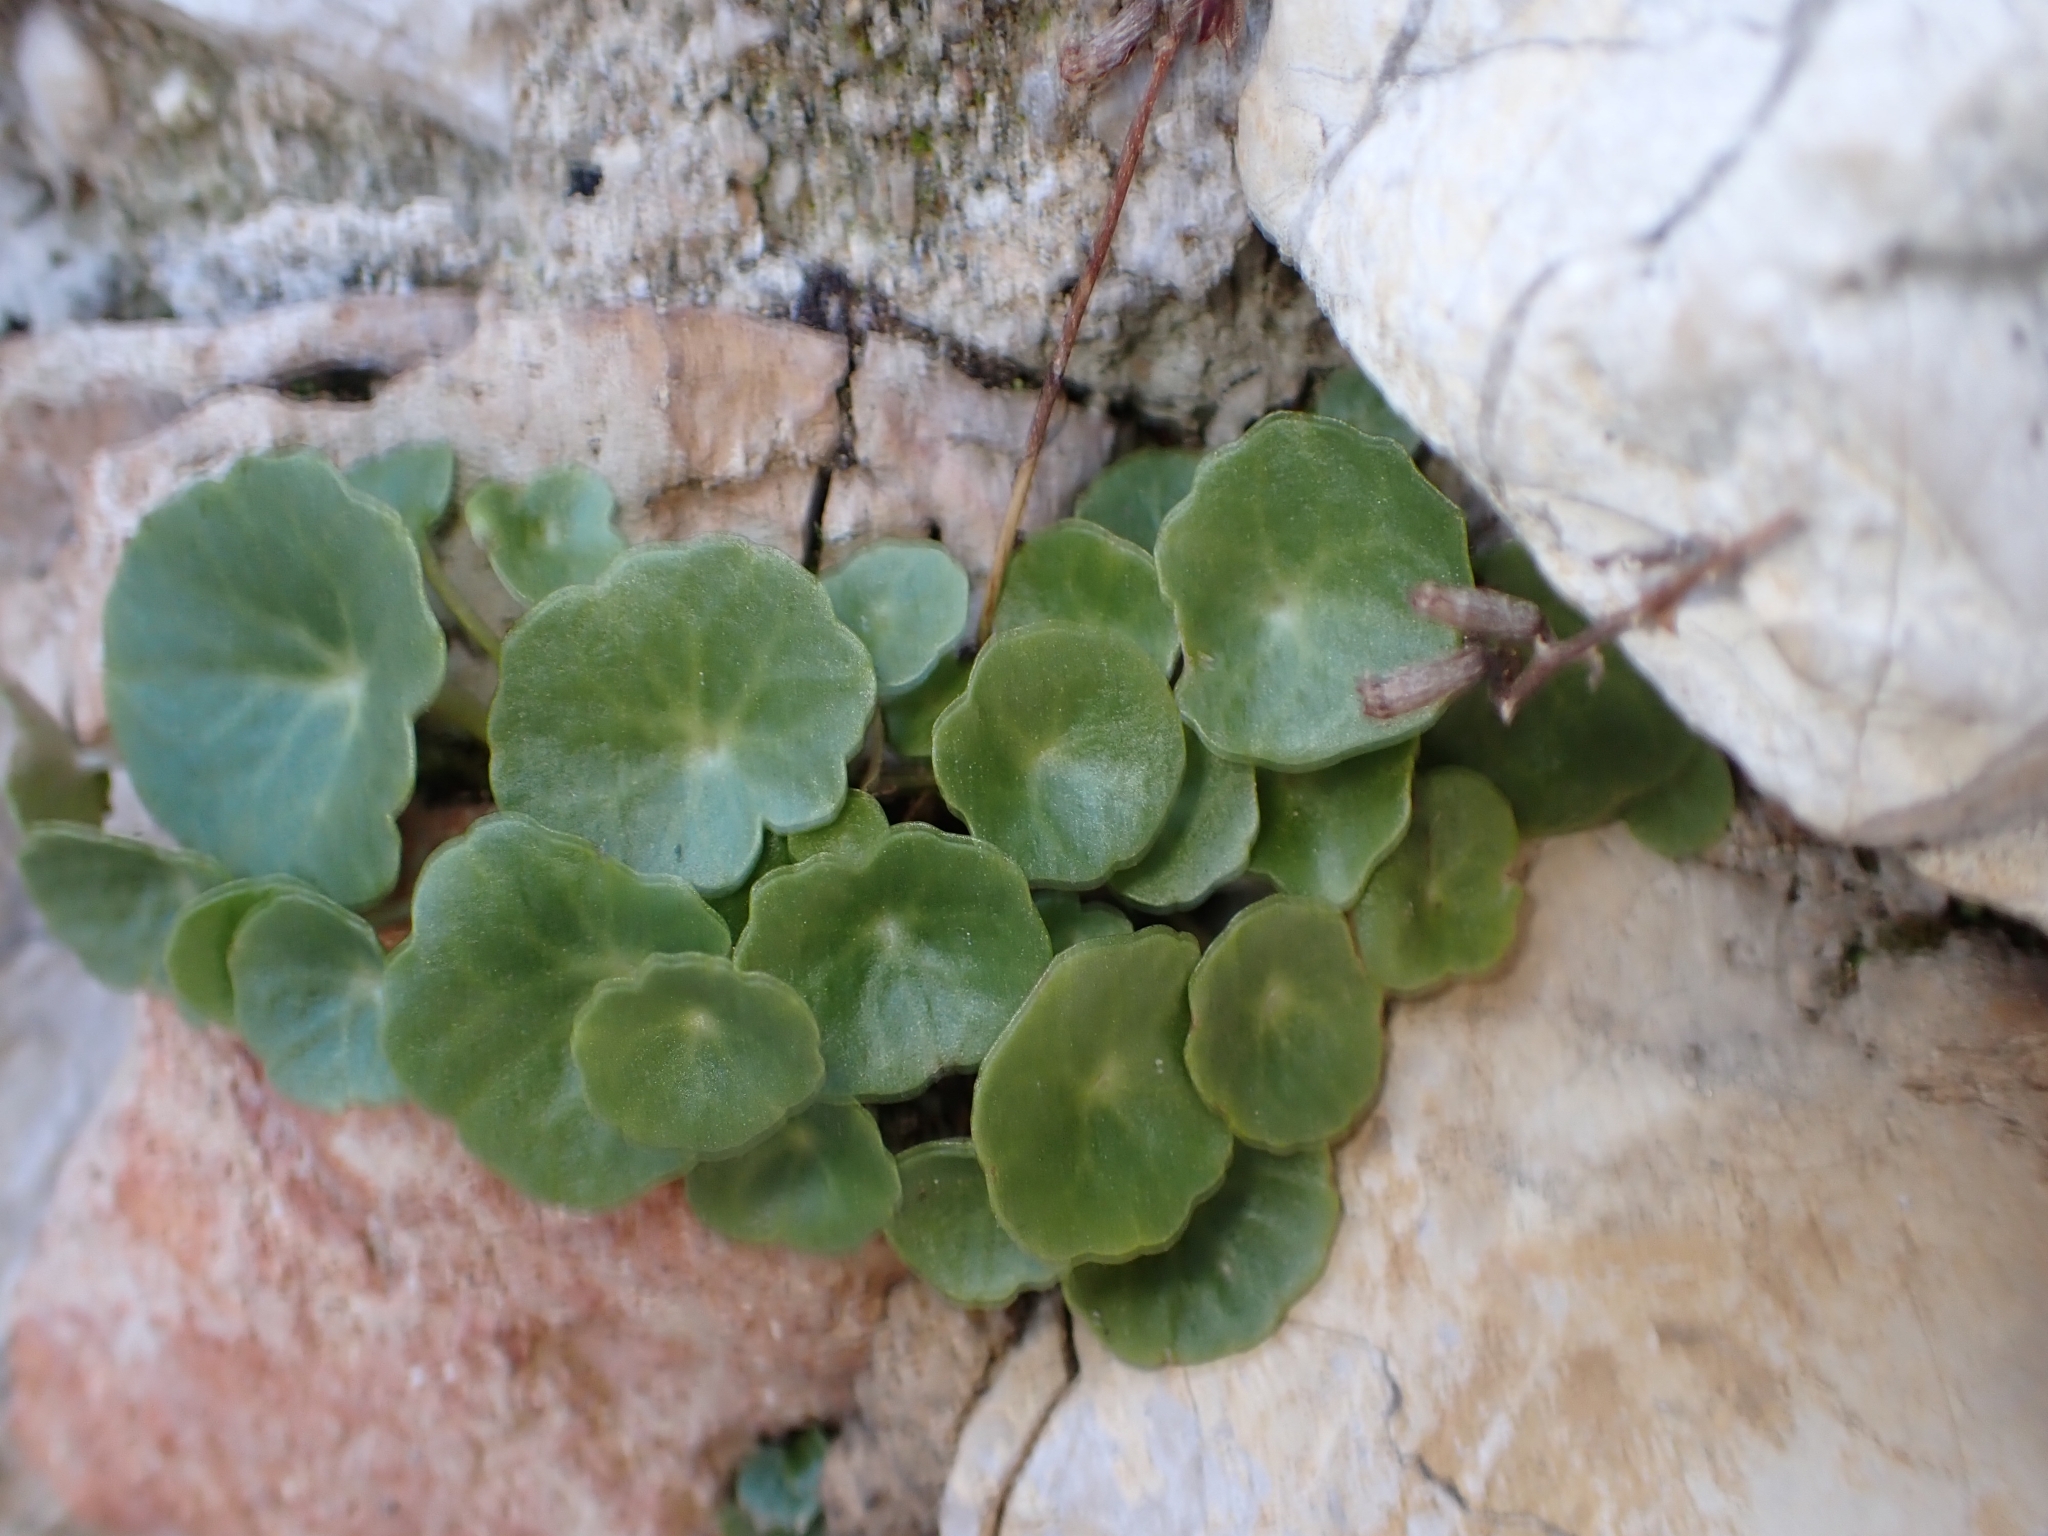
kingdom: Plantae
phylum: Tracheophyta
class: Magnoliopsida
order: Saxifragales
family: Crassulaceae
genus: Umbilicus
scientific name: Umbilicus rupestris
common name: Navelwort
